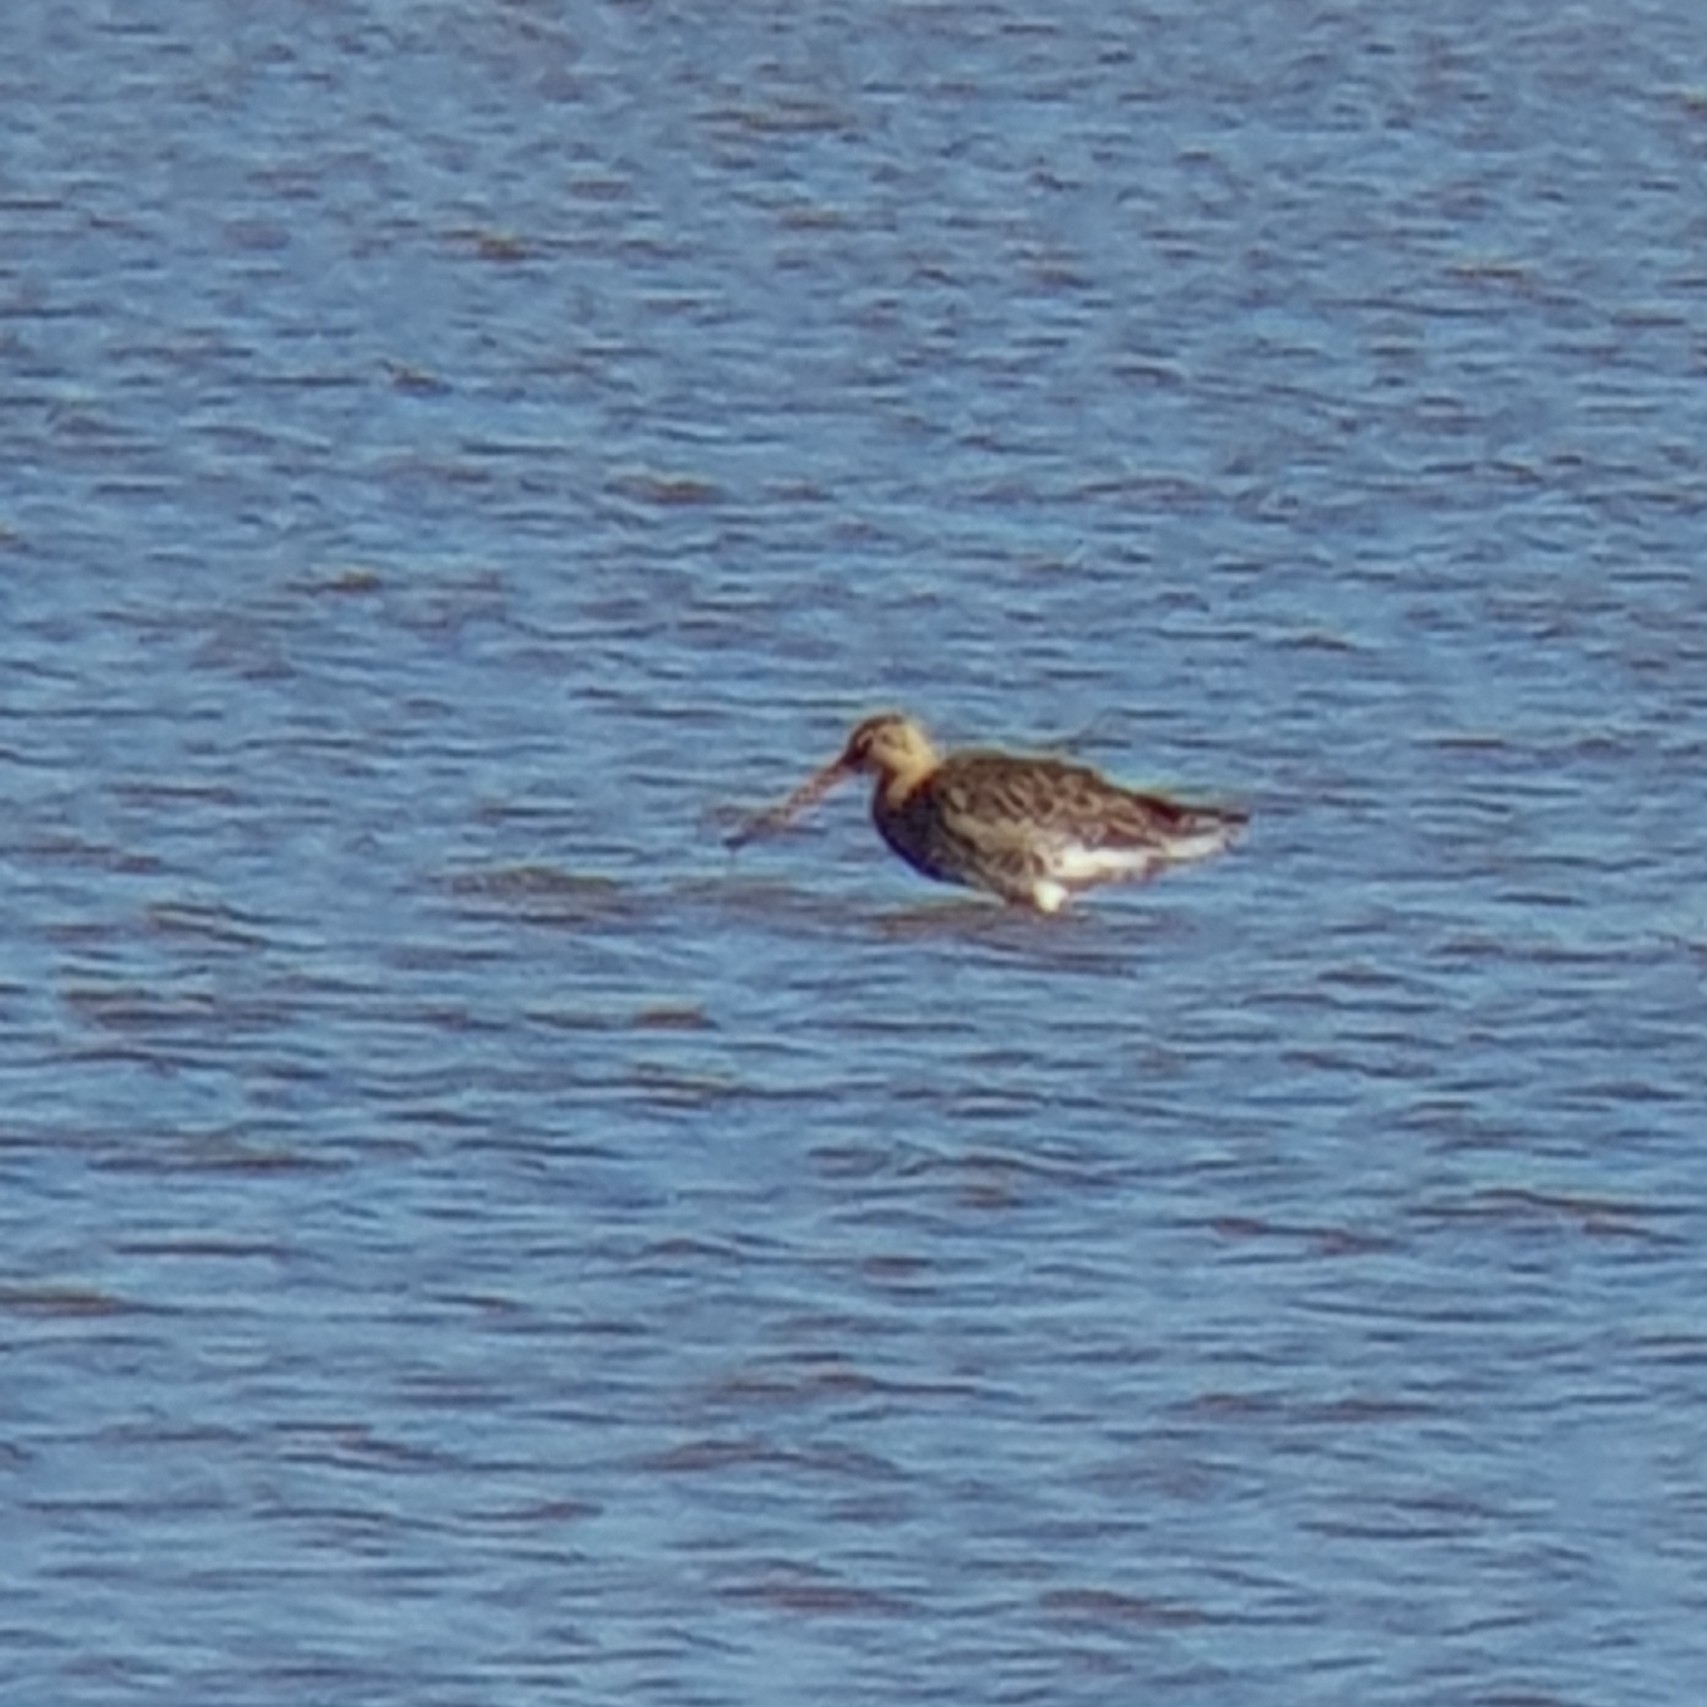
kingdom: Animalia
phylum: Chordata
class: Aves
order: Charadriiformes
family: Scolopacidae
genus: Limosa
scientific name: Limosa limosa
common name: Black-tailed godwit
